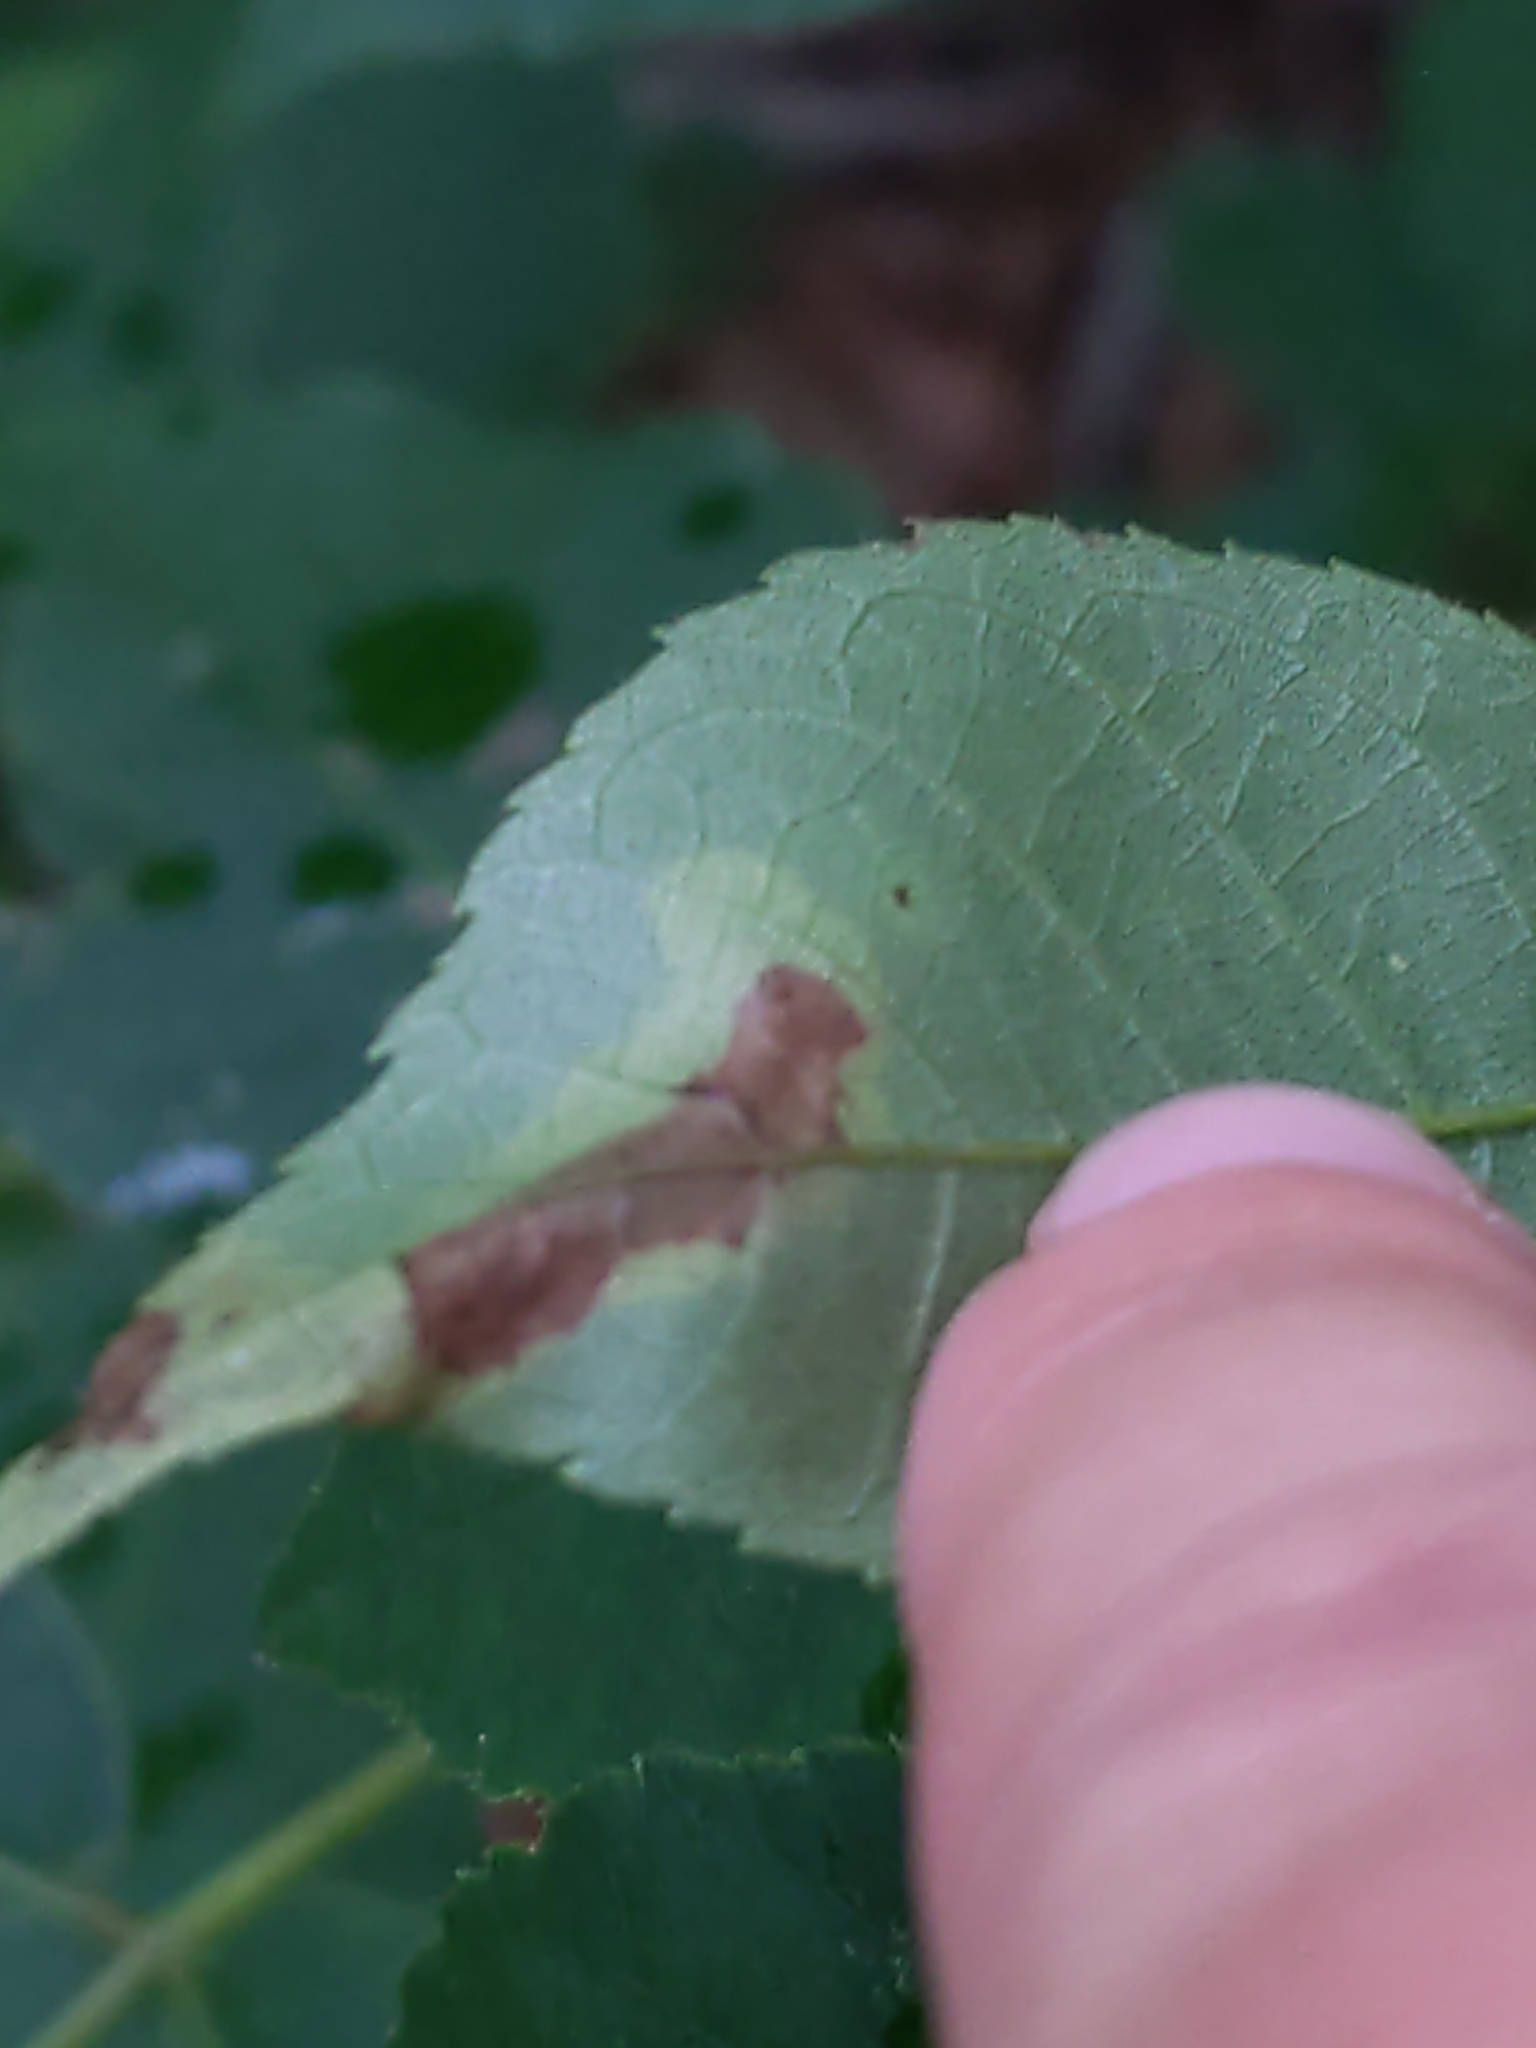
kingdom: Animalia
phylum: Arthropoda
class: Insecta
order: Lepidoptera
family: Gracillariidae
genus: Cameraria
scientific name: Cameraria caryaefoliella
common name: Pecan leafminer moth
